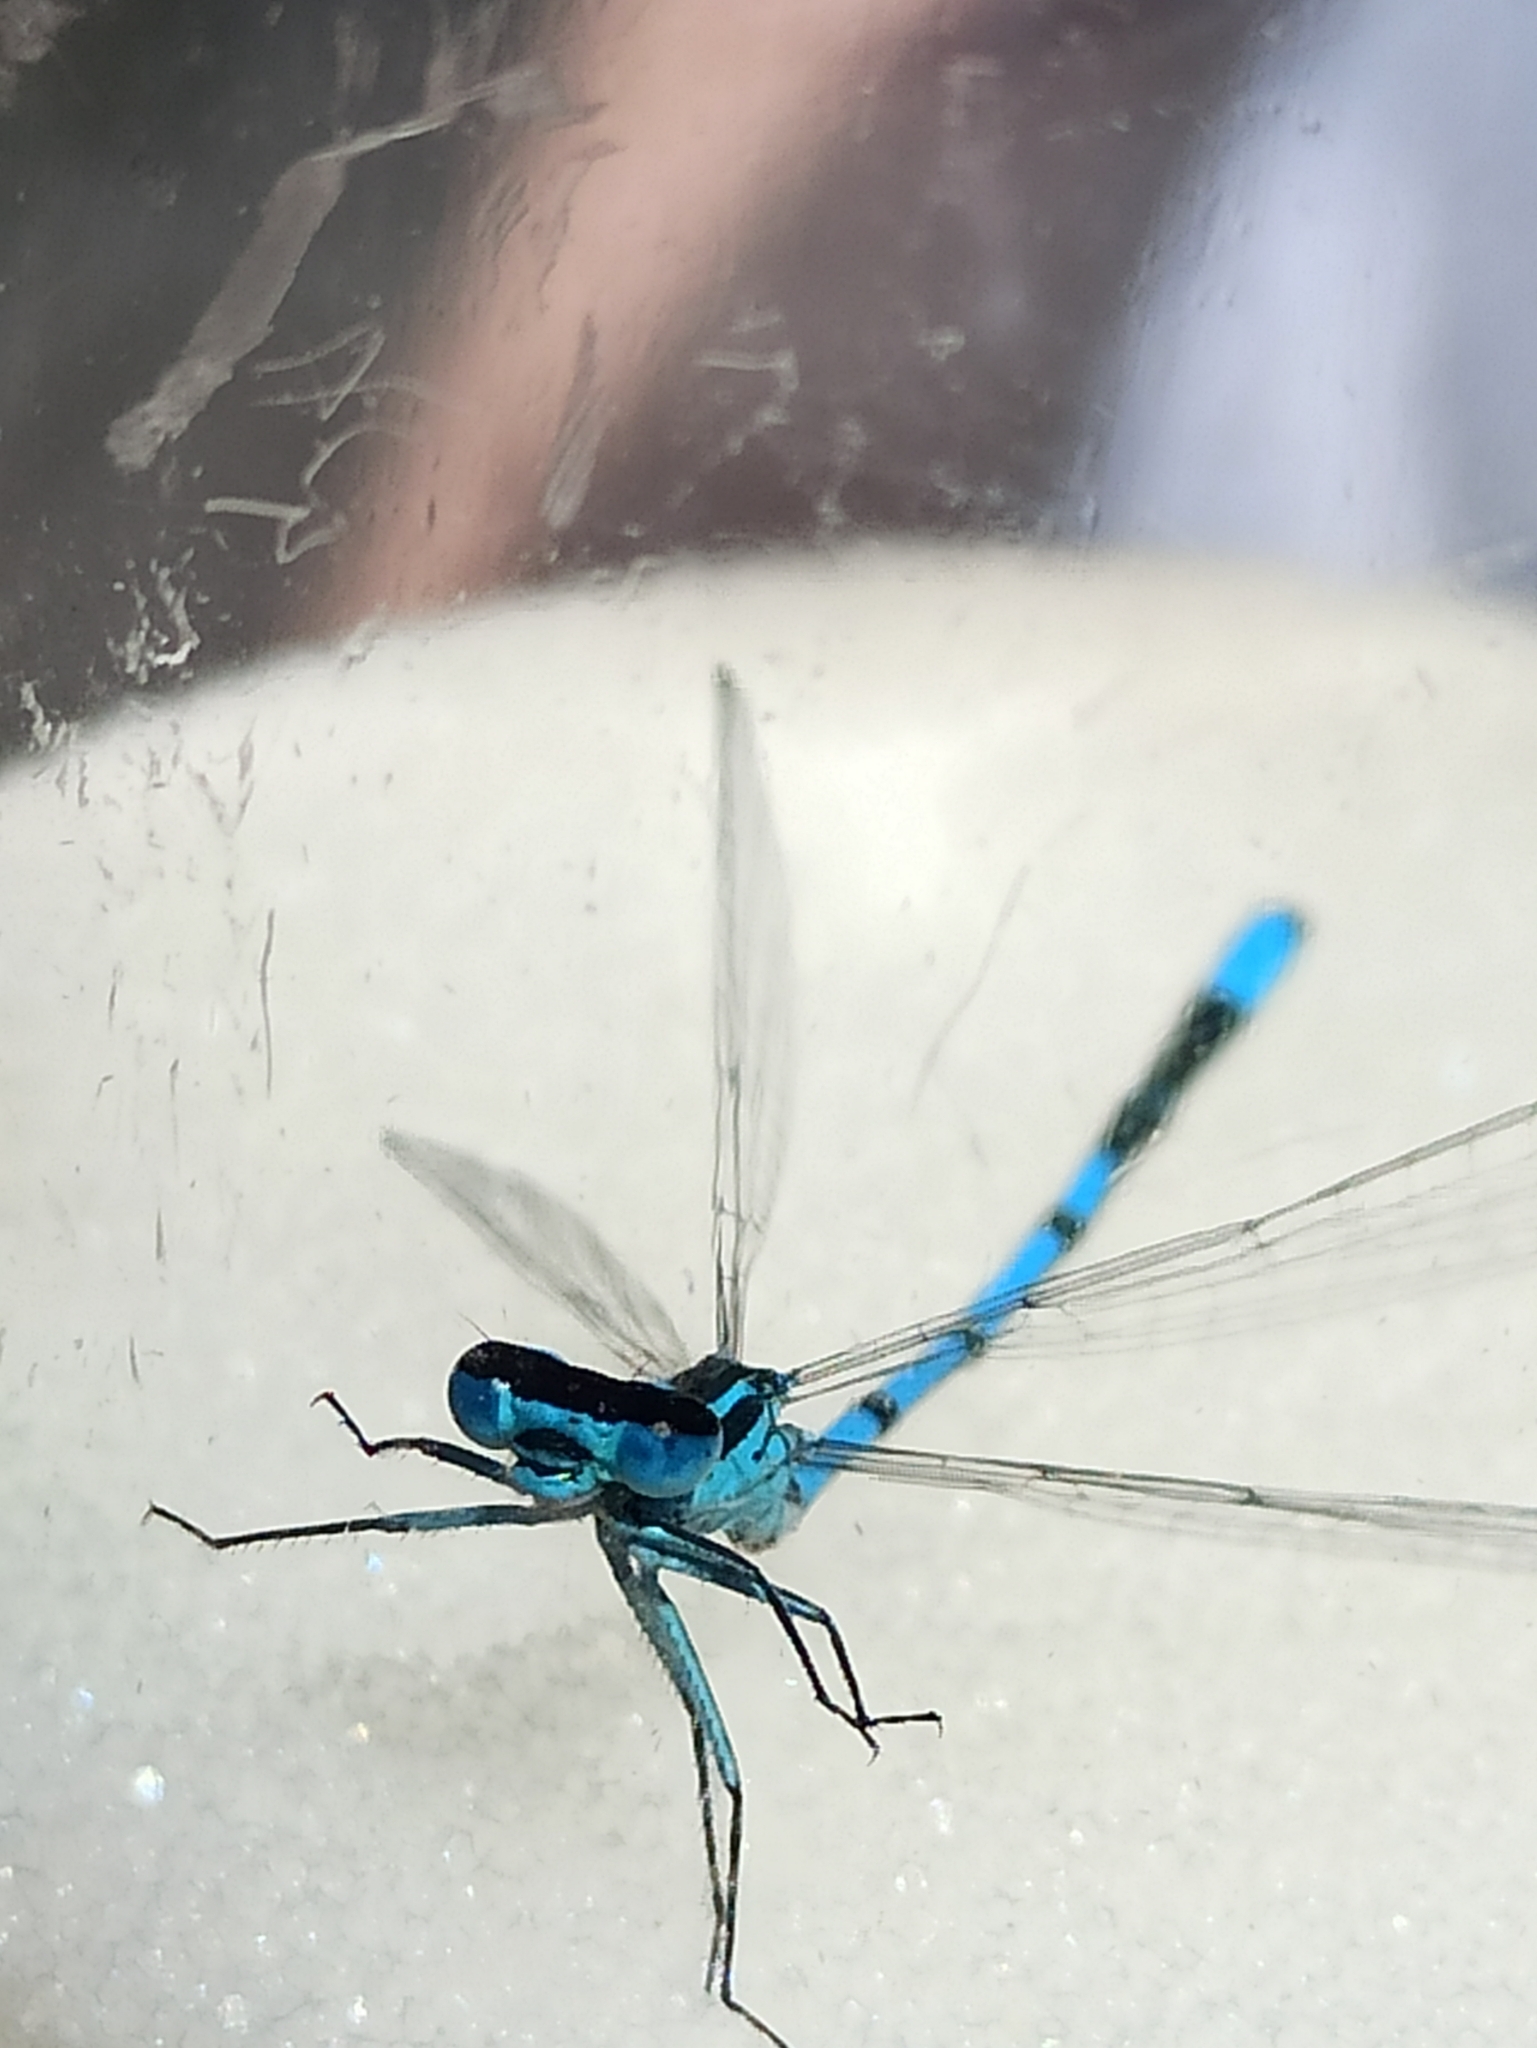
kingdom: Animalia
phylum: Arthropoda
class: Insecta
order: Odonata
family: Coenagrionidae
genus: Coenagrion
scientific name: Coenagrion puella
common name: Azure damselfly
